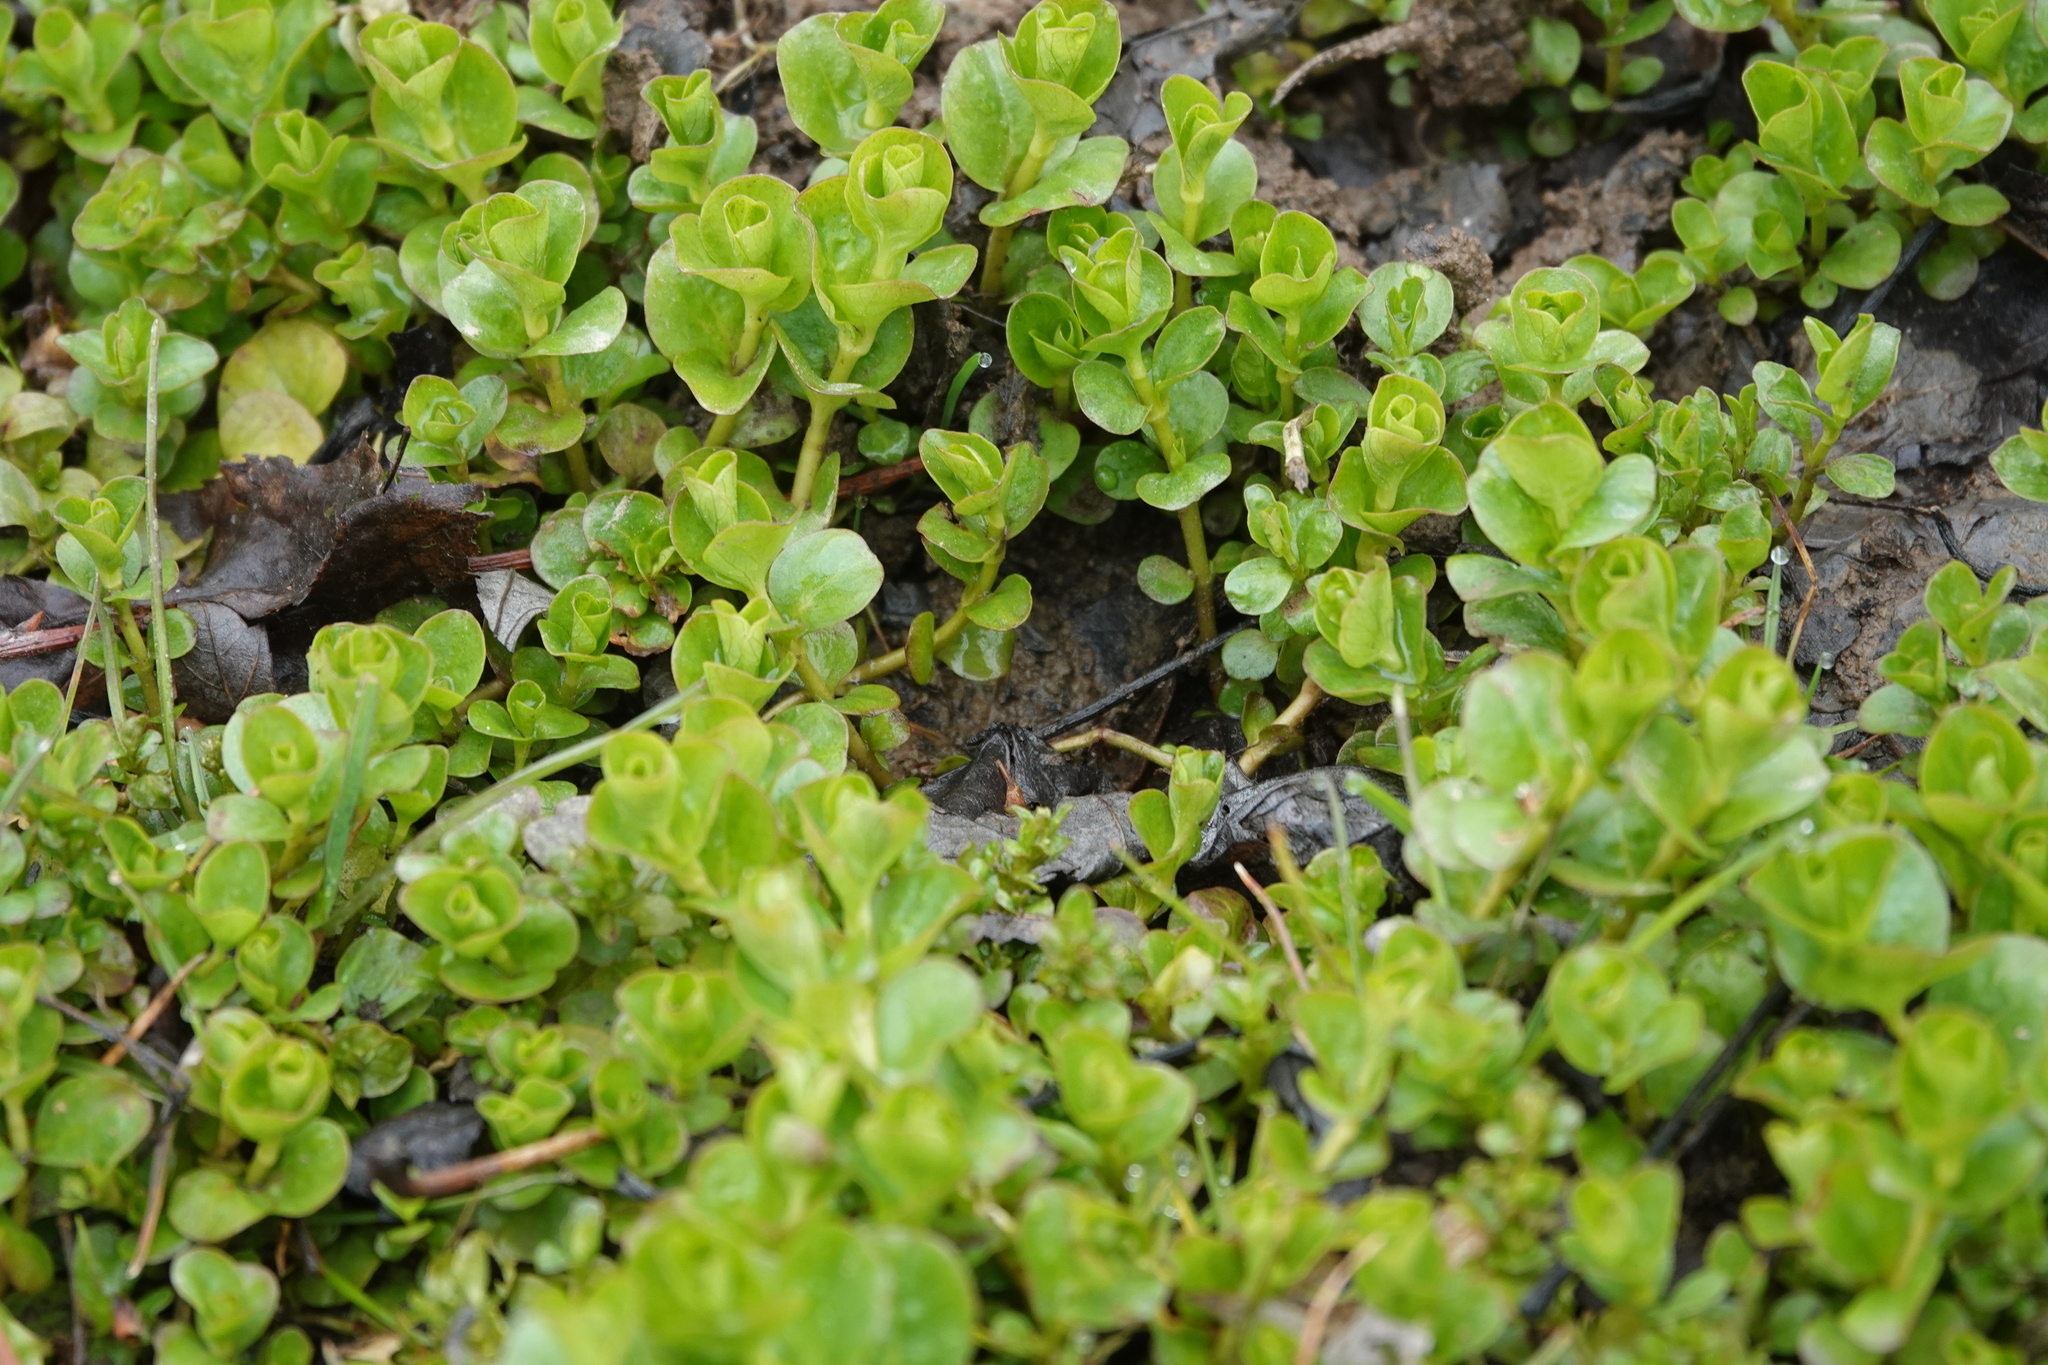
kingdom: Plantae
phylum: Tracheophyta
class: Magnoliopsida
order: Ericales
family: Primulaceae
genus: Lysimachia
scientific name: Lysimachia nummularia
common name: Moneywort
